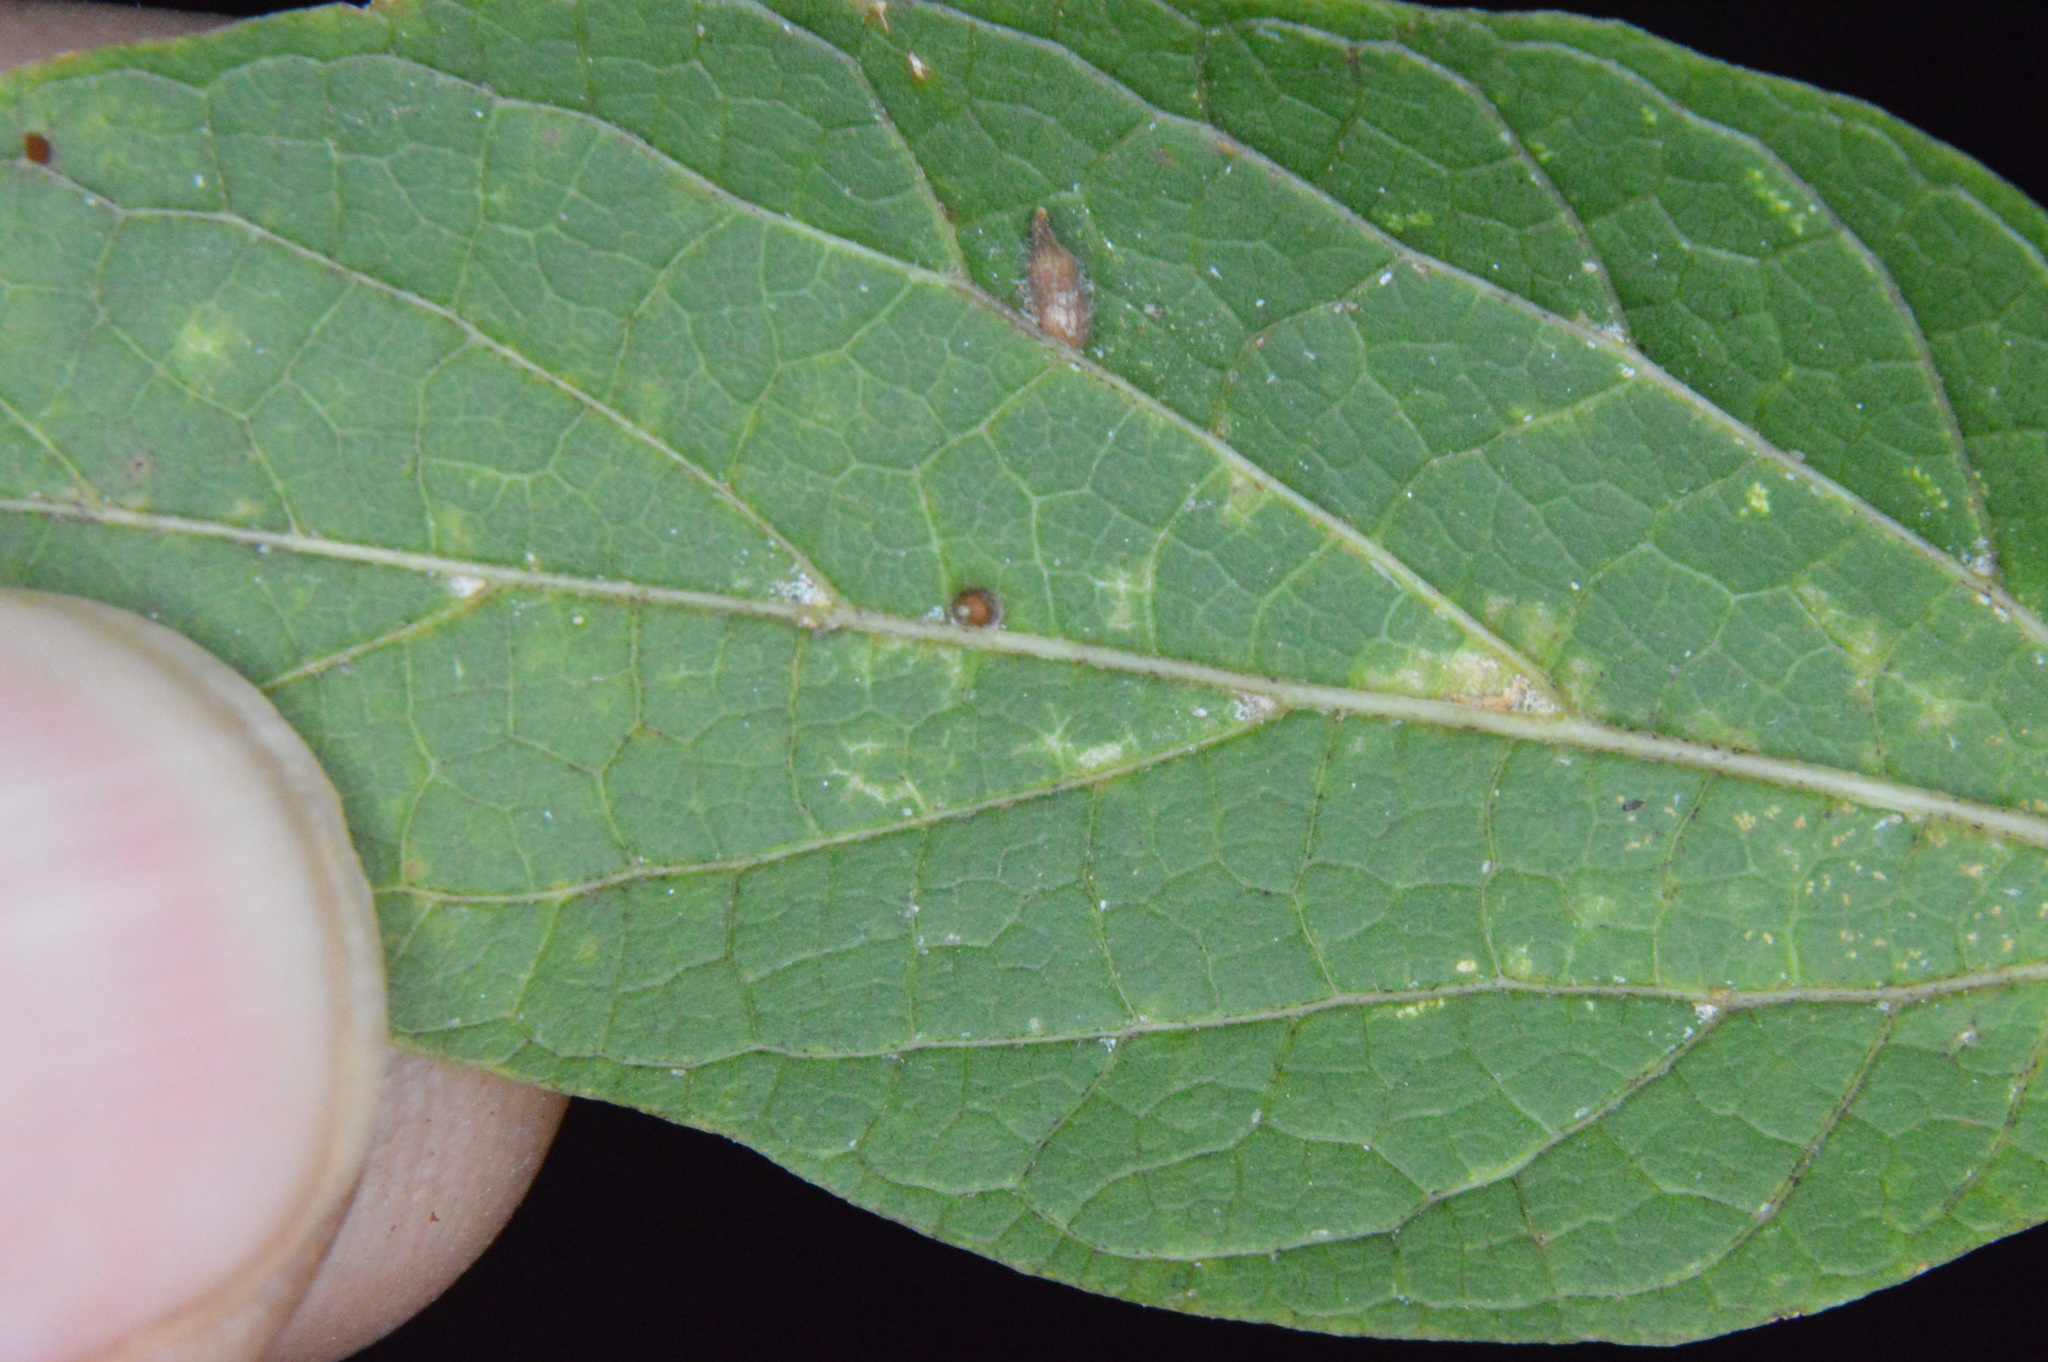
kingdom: Animalia
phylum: Arthropoda
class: Insecta
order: Diptera
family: Cecidomyiidae
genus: Celticecis
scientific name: Celticecis cupiformis
